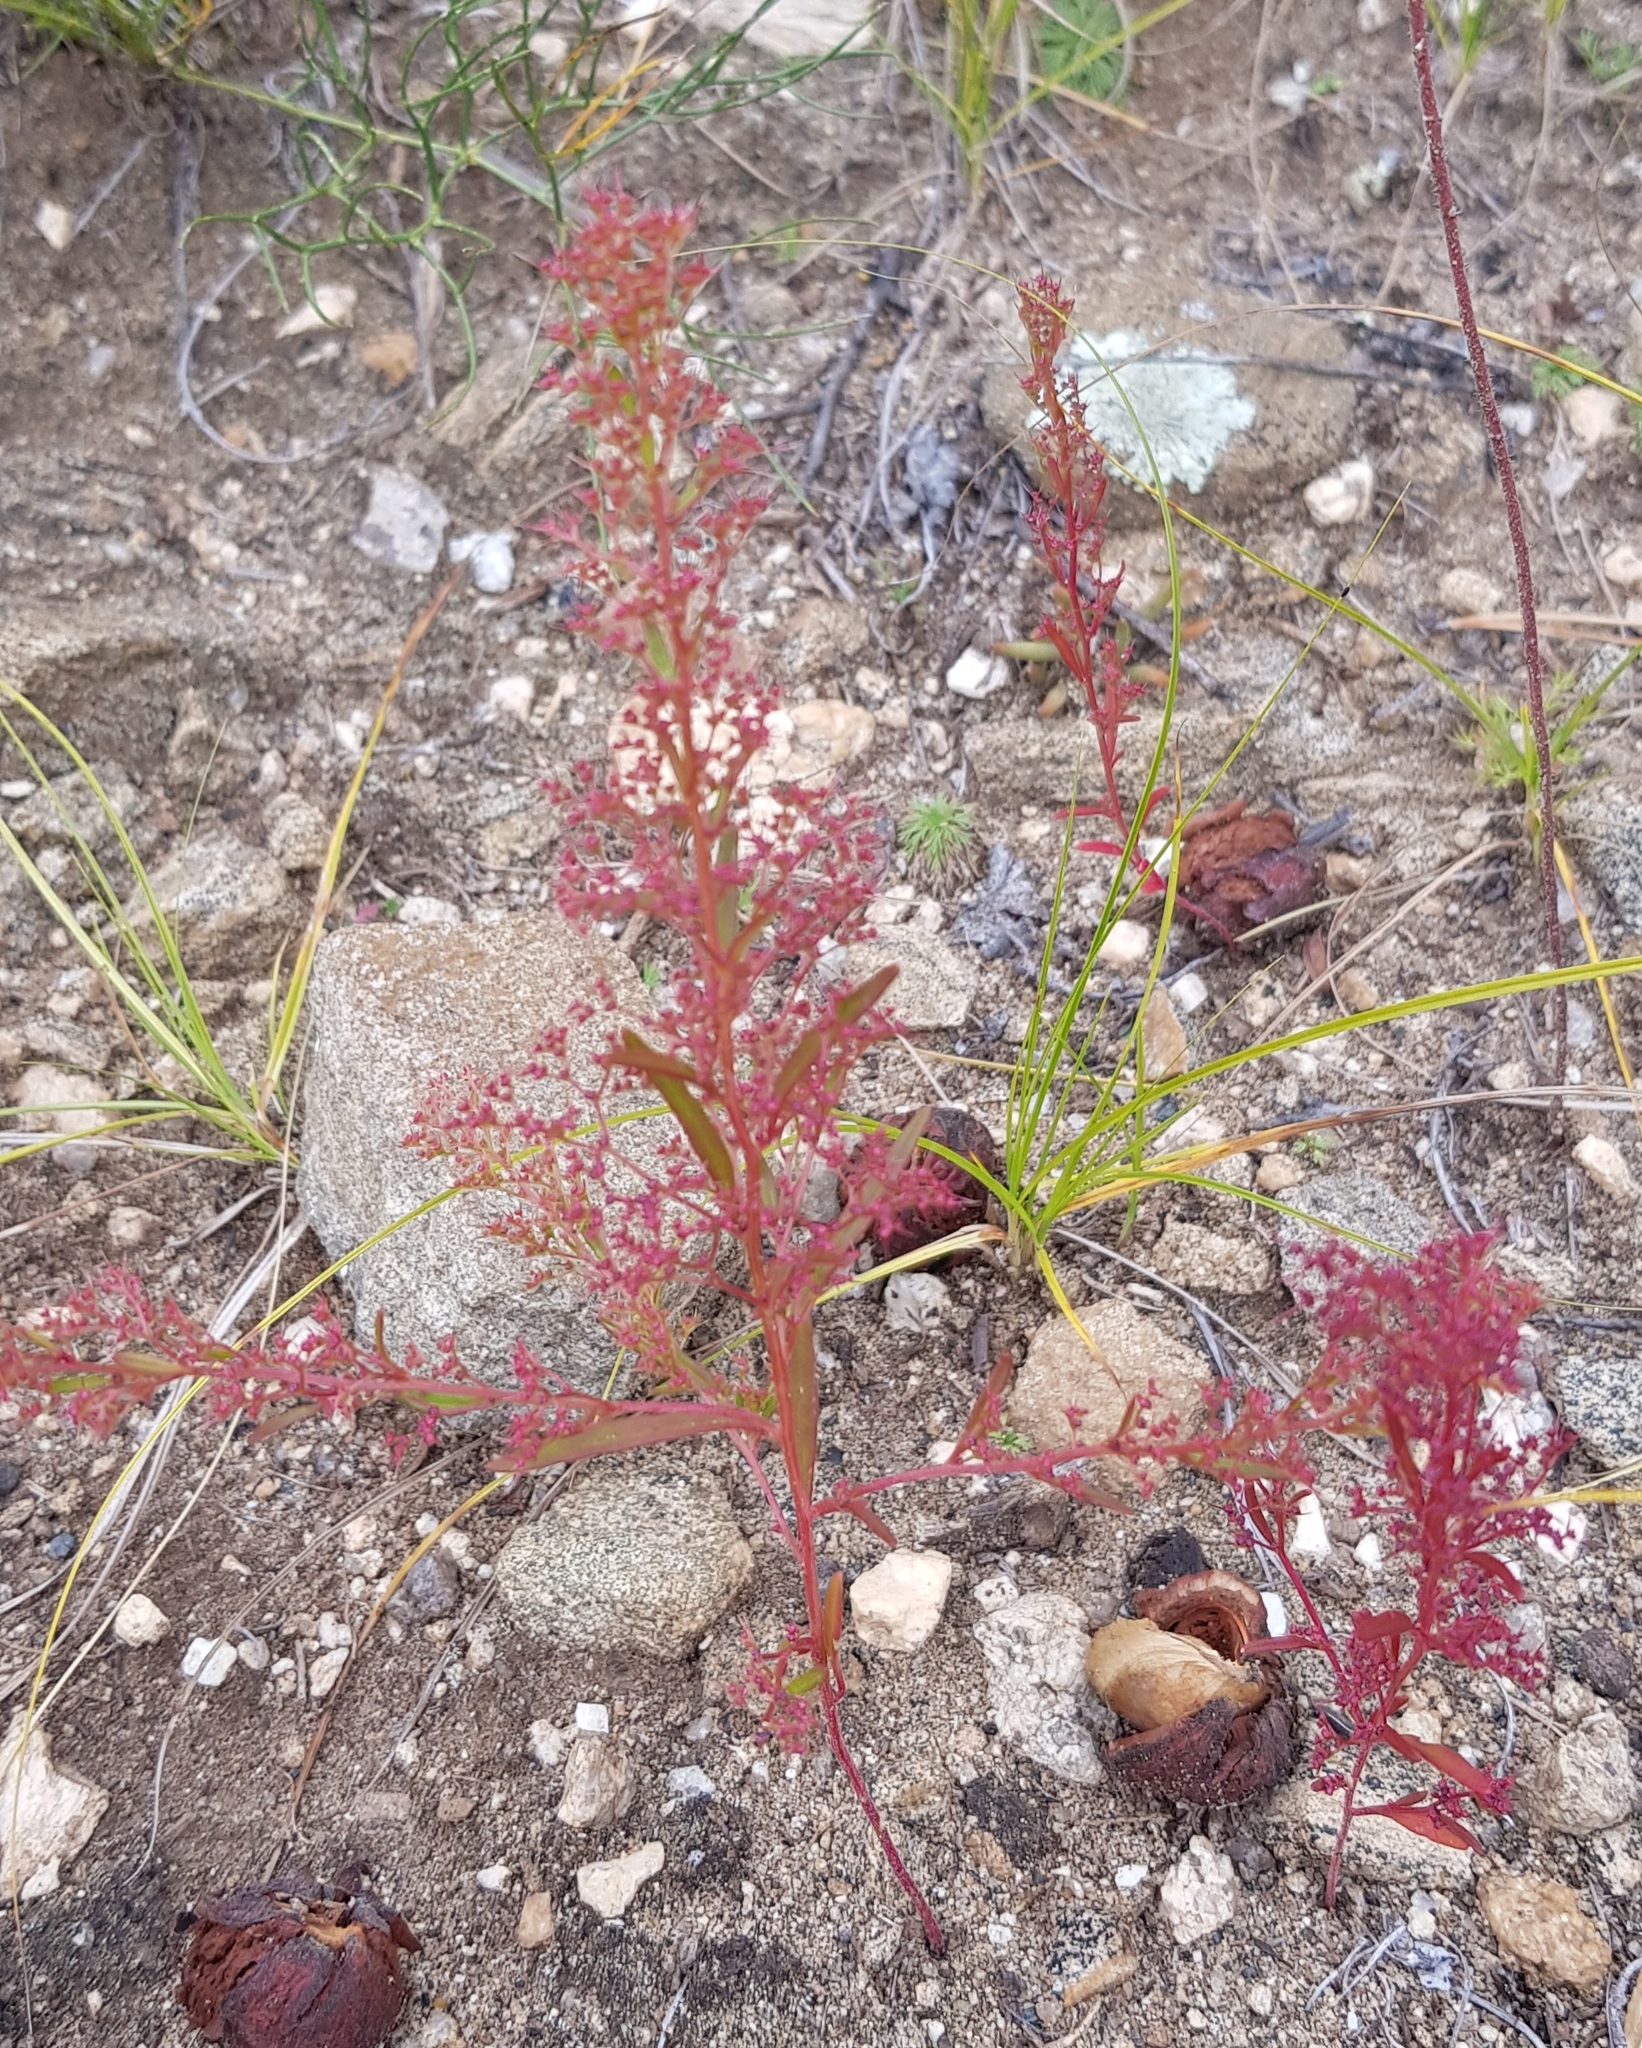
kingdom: Plantae
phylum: Tracheophyta
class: Magnoliopsida
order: Caryophyllales
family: Amaranthaceae
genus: Teloxys
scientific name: Teloxys aristata
